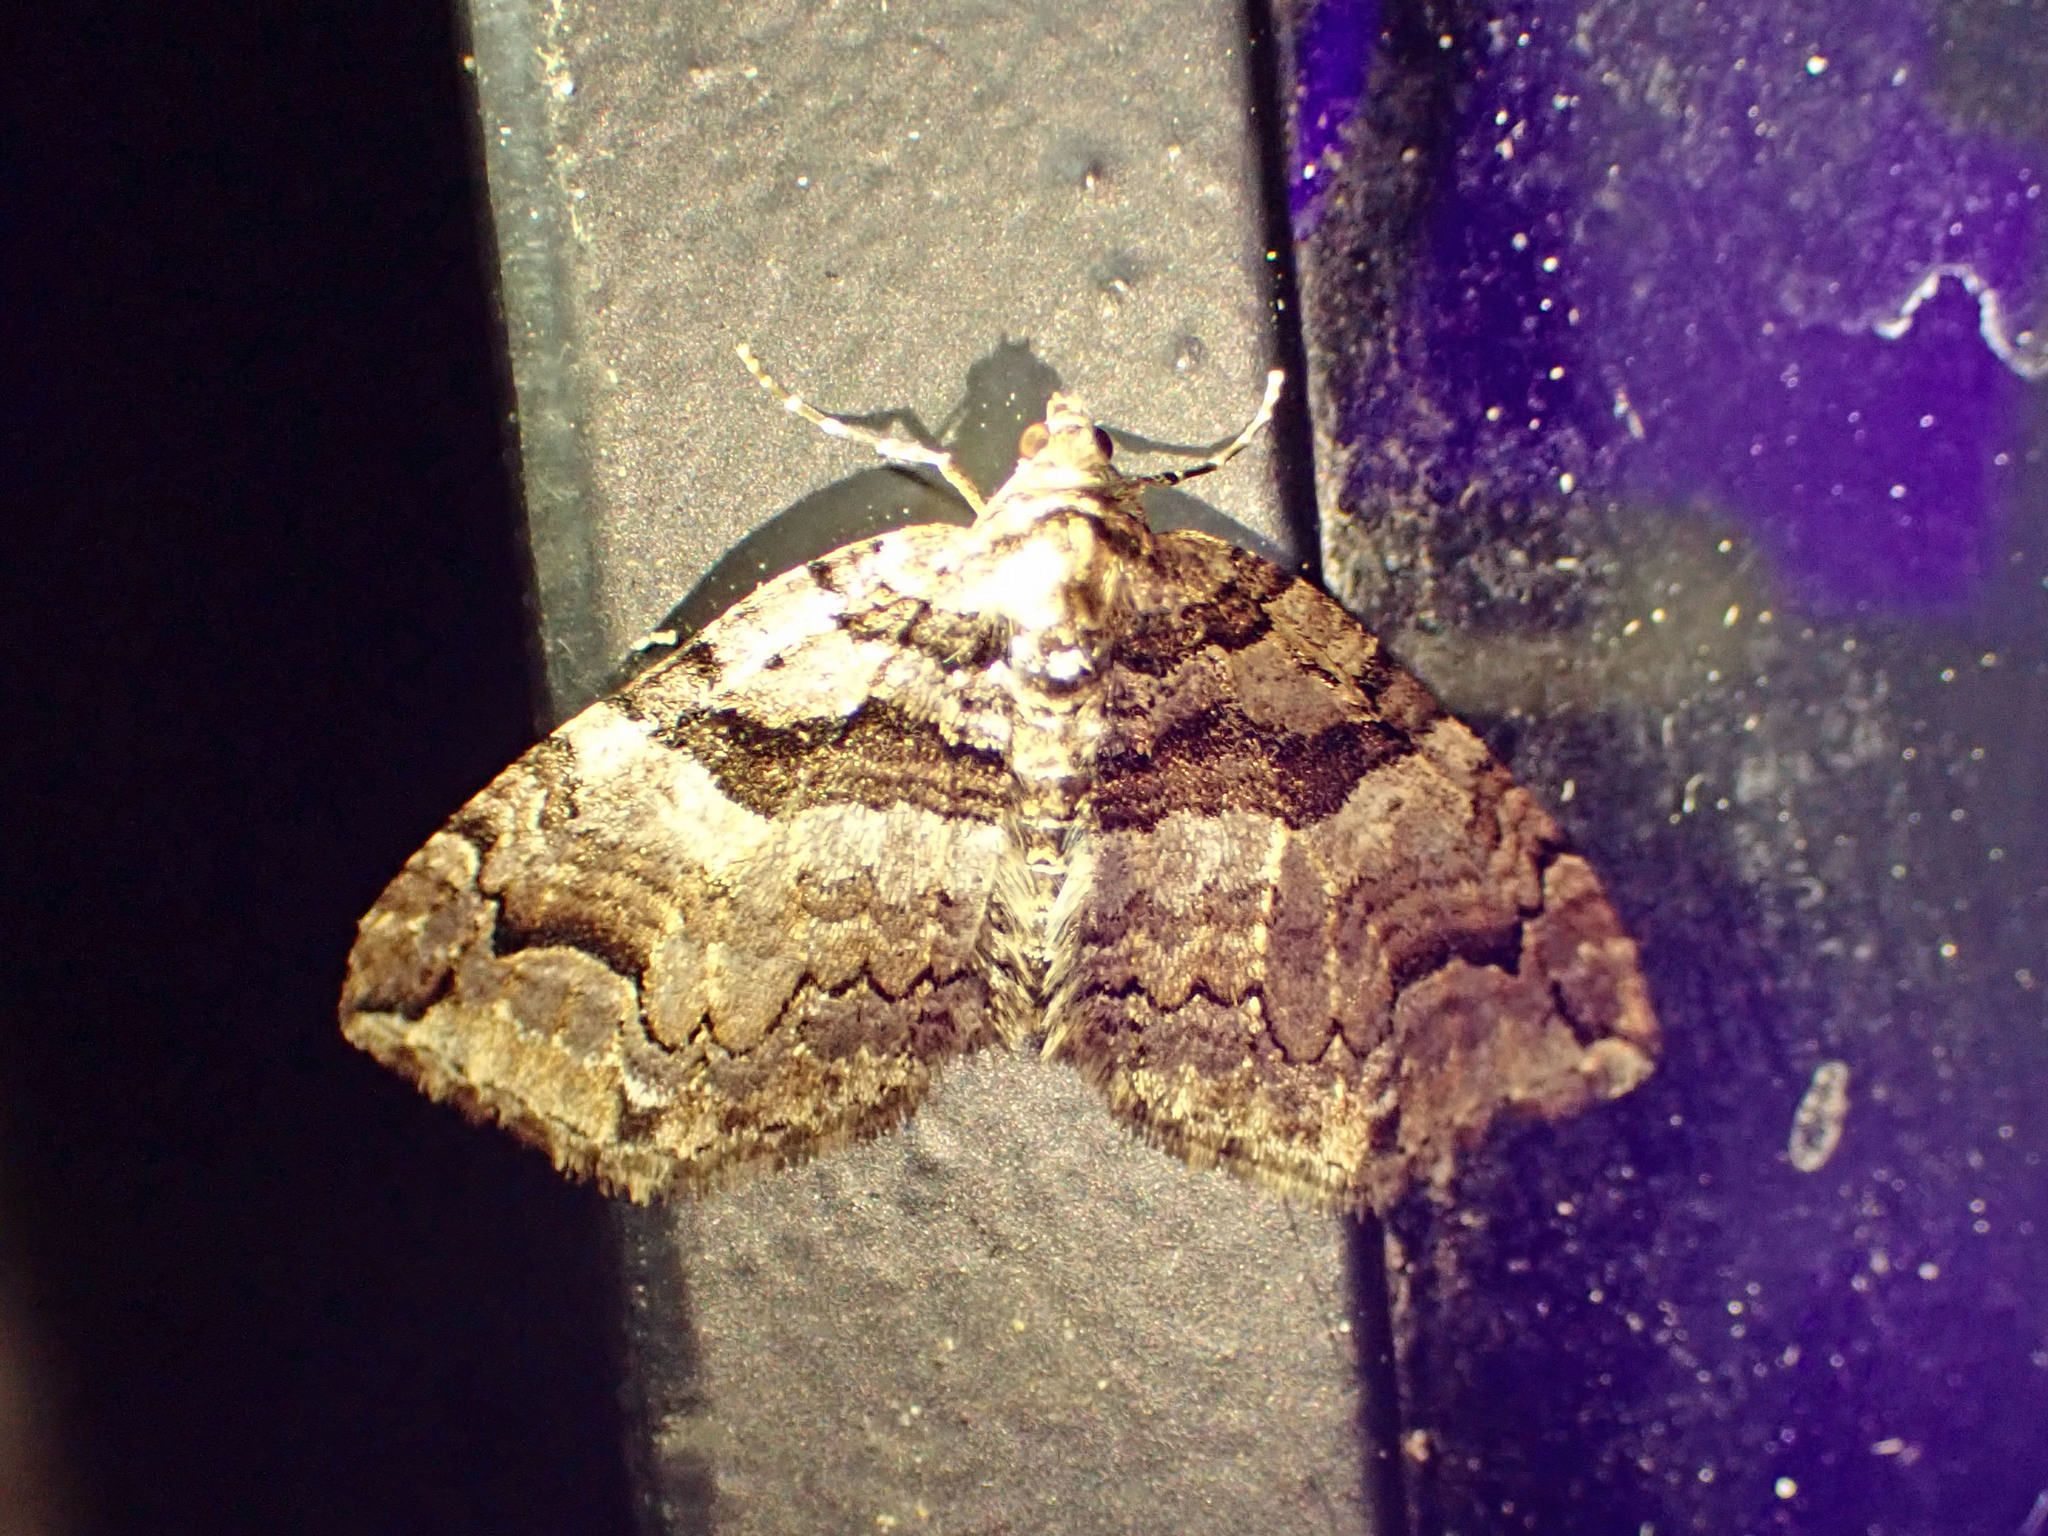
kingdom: Animalia
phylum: Arthropoda
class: Insecta
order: Lepidoptera
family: Geometridae
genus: Anticlea
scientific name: Anticlea vasiliata
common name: Variable carpet
